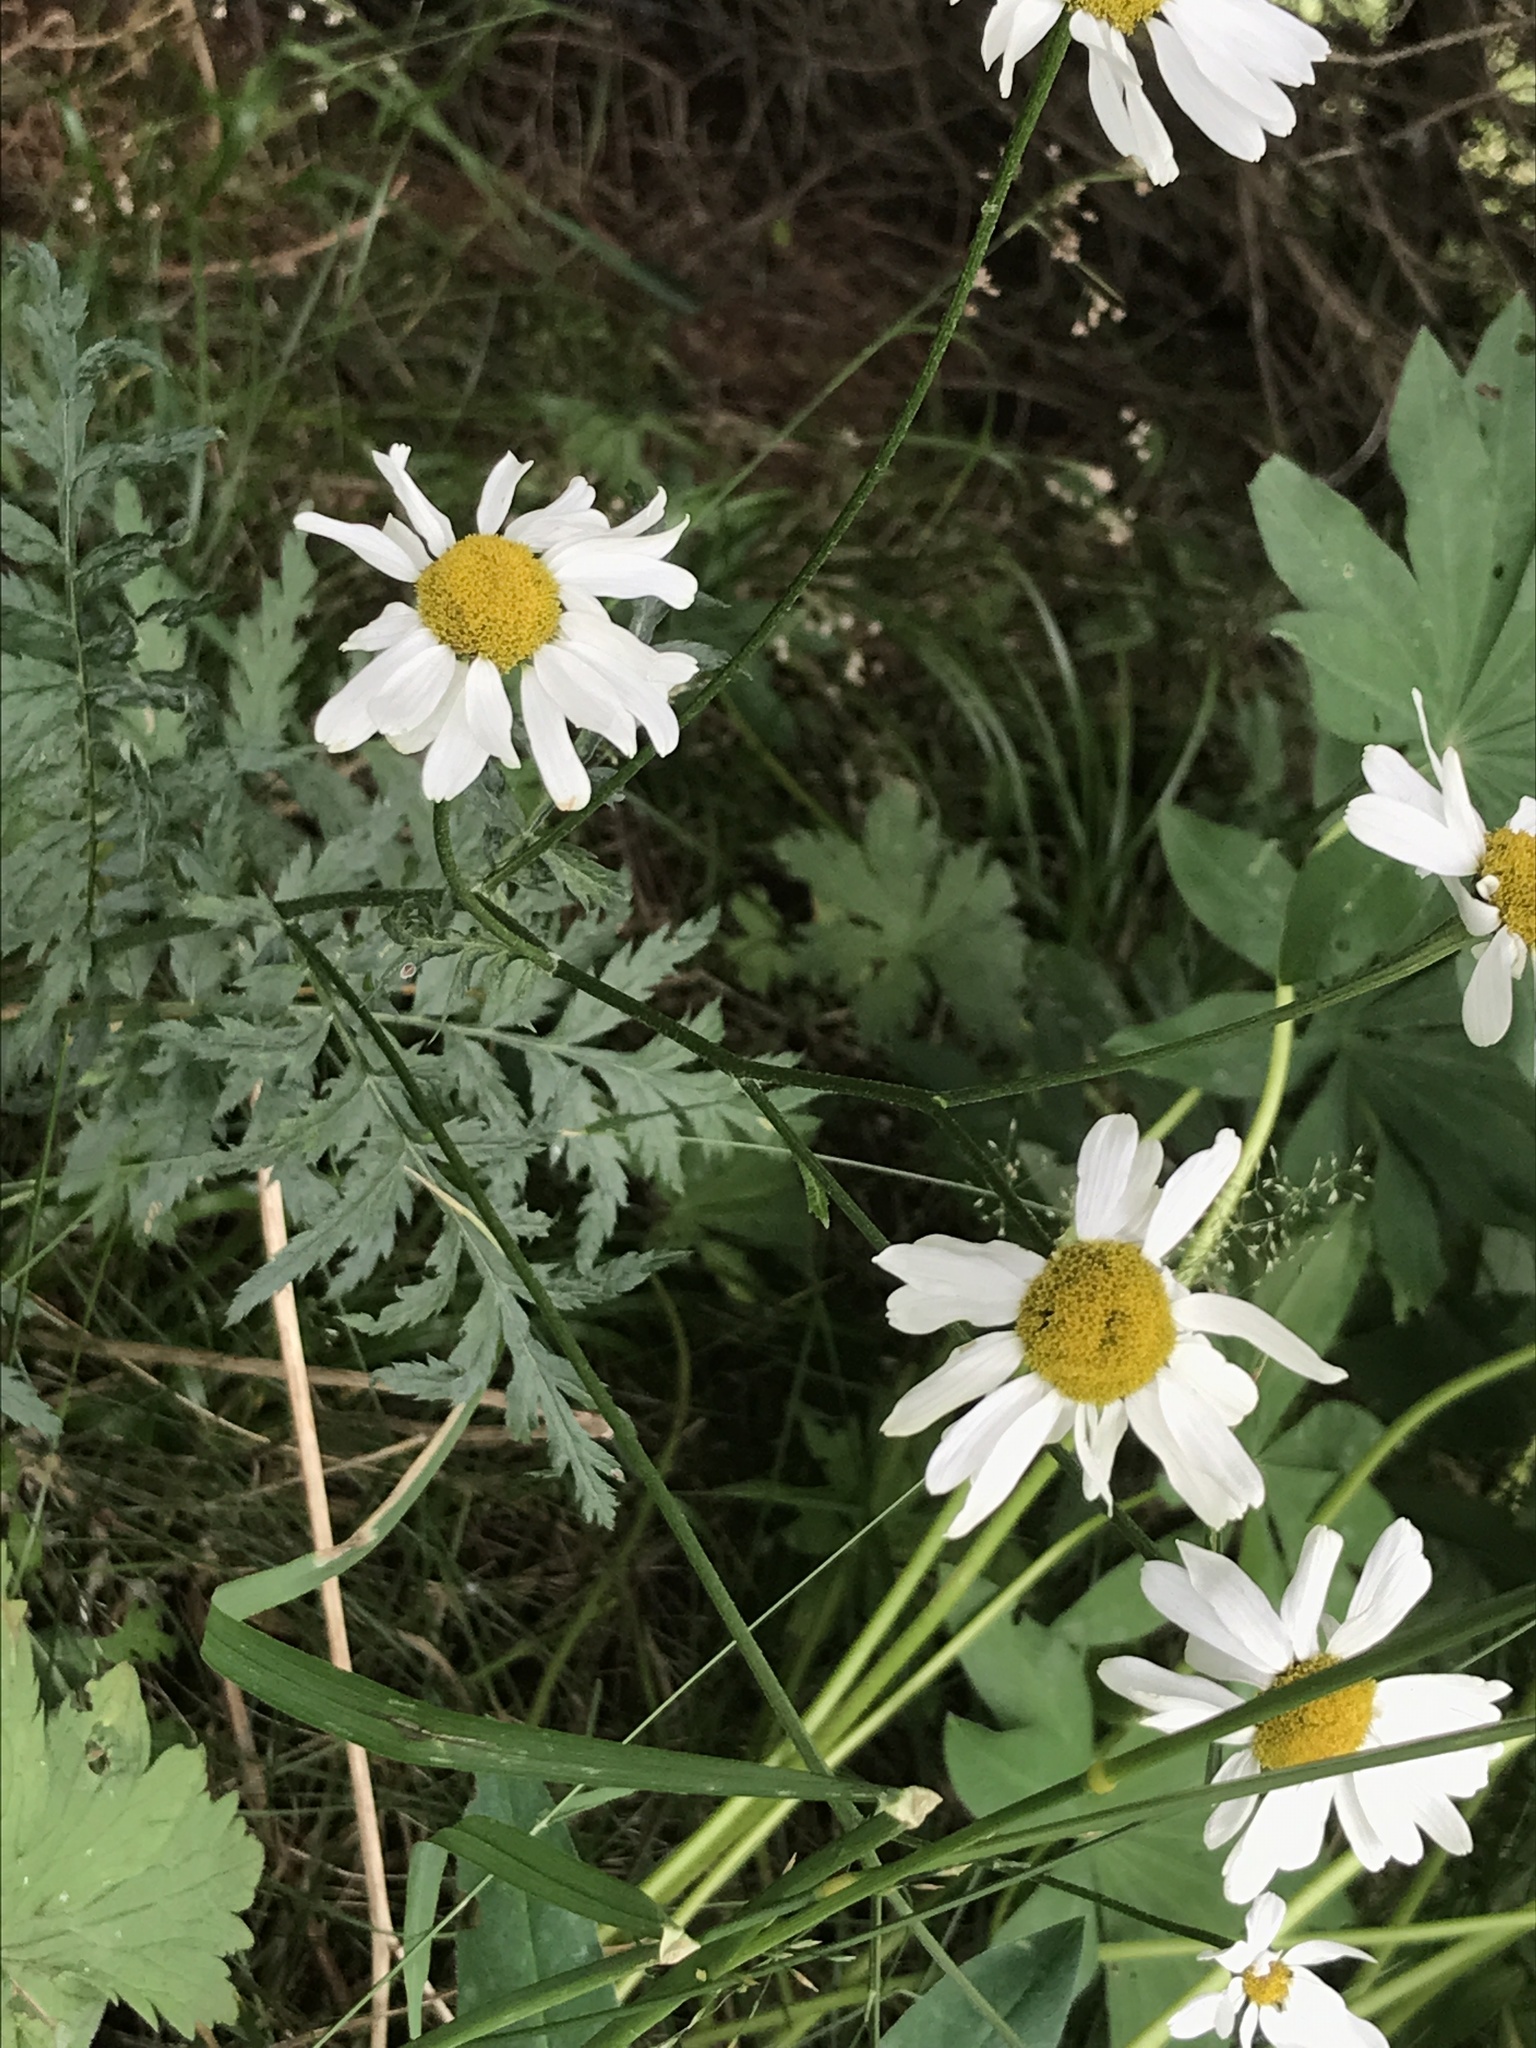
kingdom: Plantae
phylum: Tracheophyta
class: Magnoliopsida
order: Asterales
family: Asteraceae
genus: Tanacetum
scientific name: Tanacetum corymbosum
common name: Scentless feverfew
